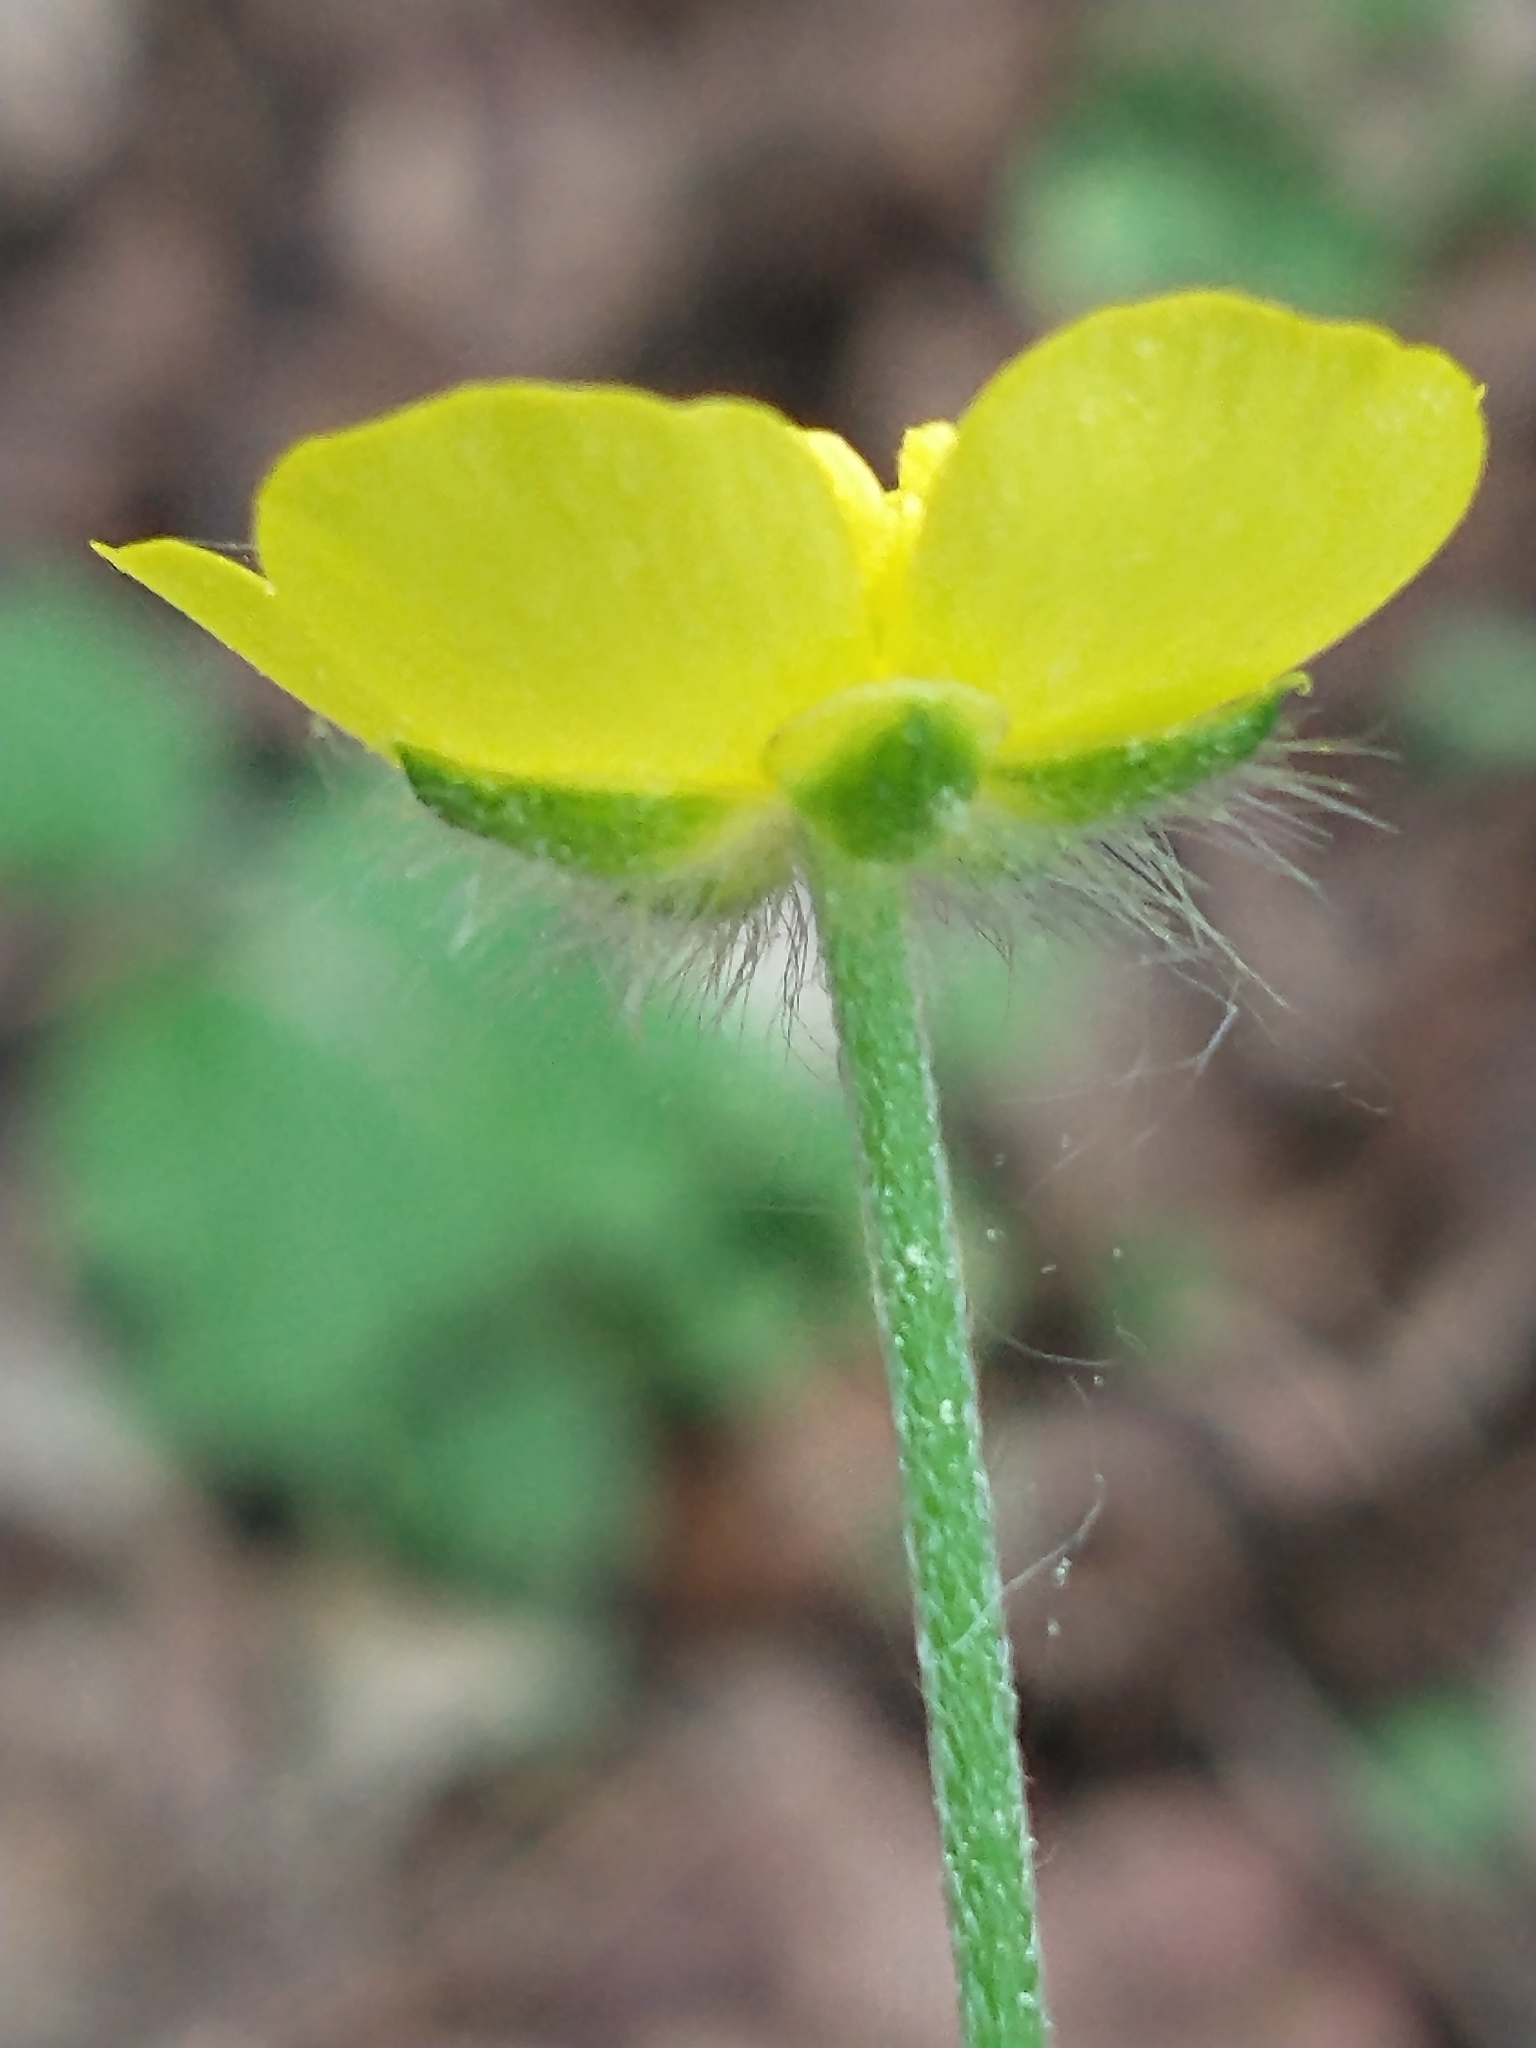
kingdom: Plantae
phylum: Tracheophyta
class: Magnoliopsida
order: Ranunculales
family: Ranunculaceae
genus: Ranunculus
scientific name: Ranunculus acris
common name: Meadow buttercup
